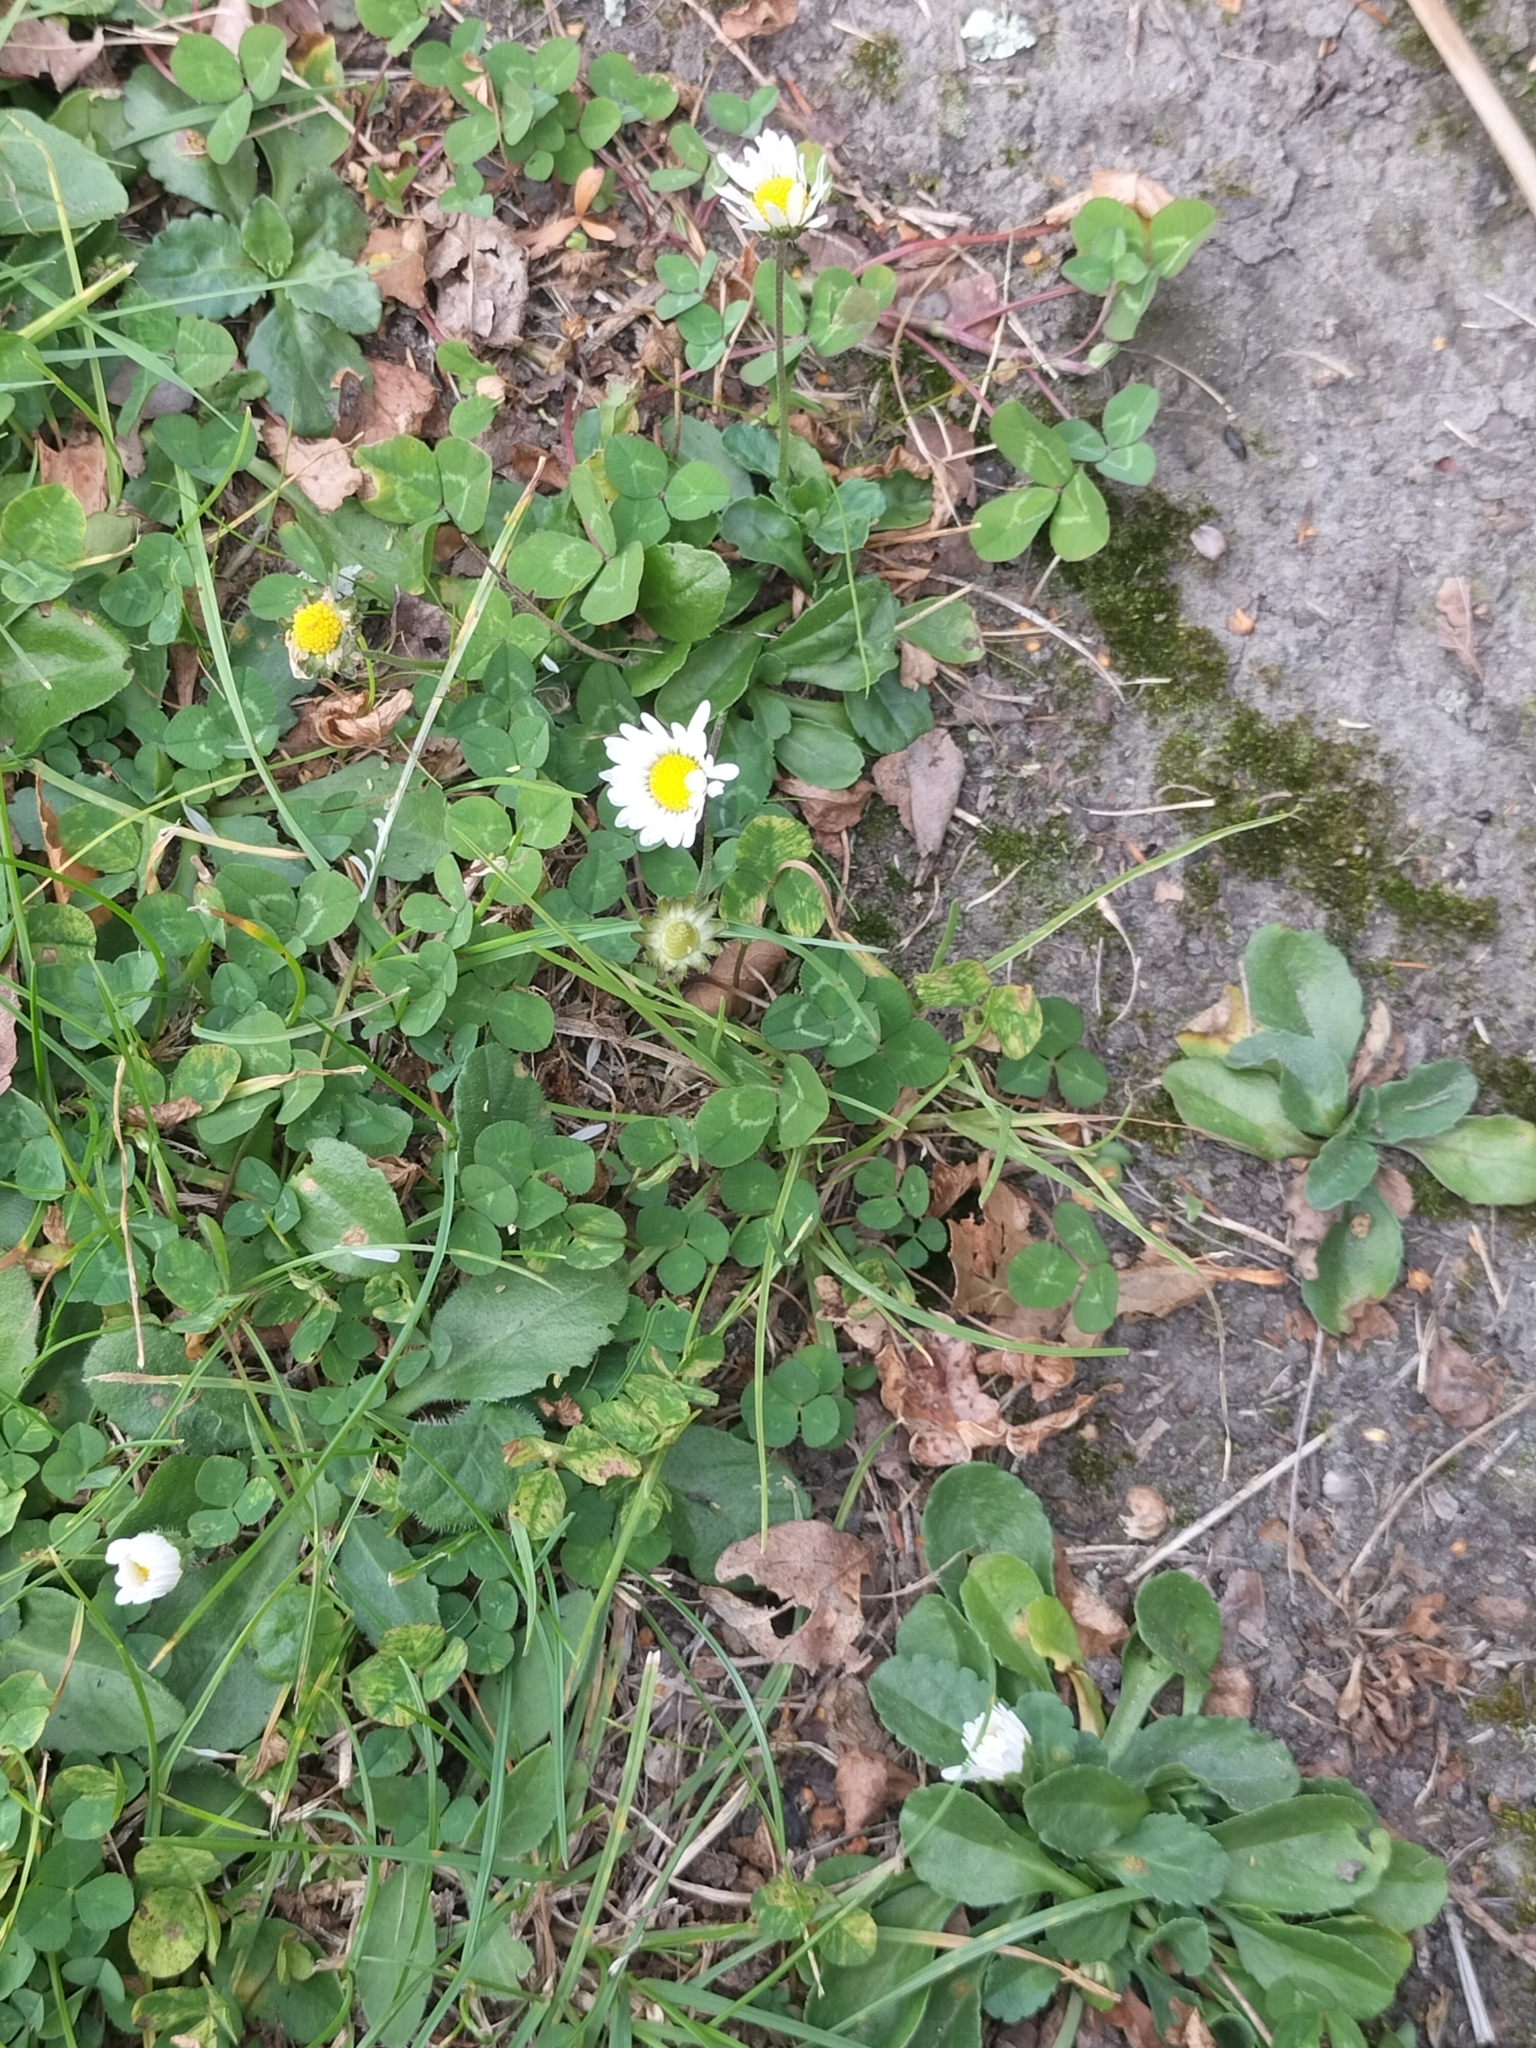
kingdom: Plantae
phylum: Tracheophyta
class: Magnoliopsida
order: Asterales
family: Asteraceae
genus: Bellis
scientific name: Bellis perennis
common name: Lawndaisy
